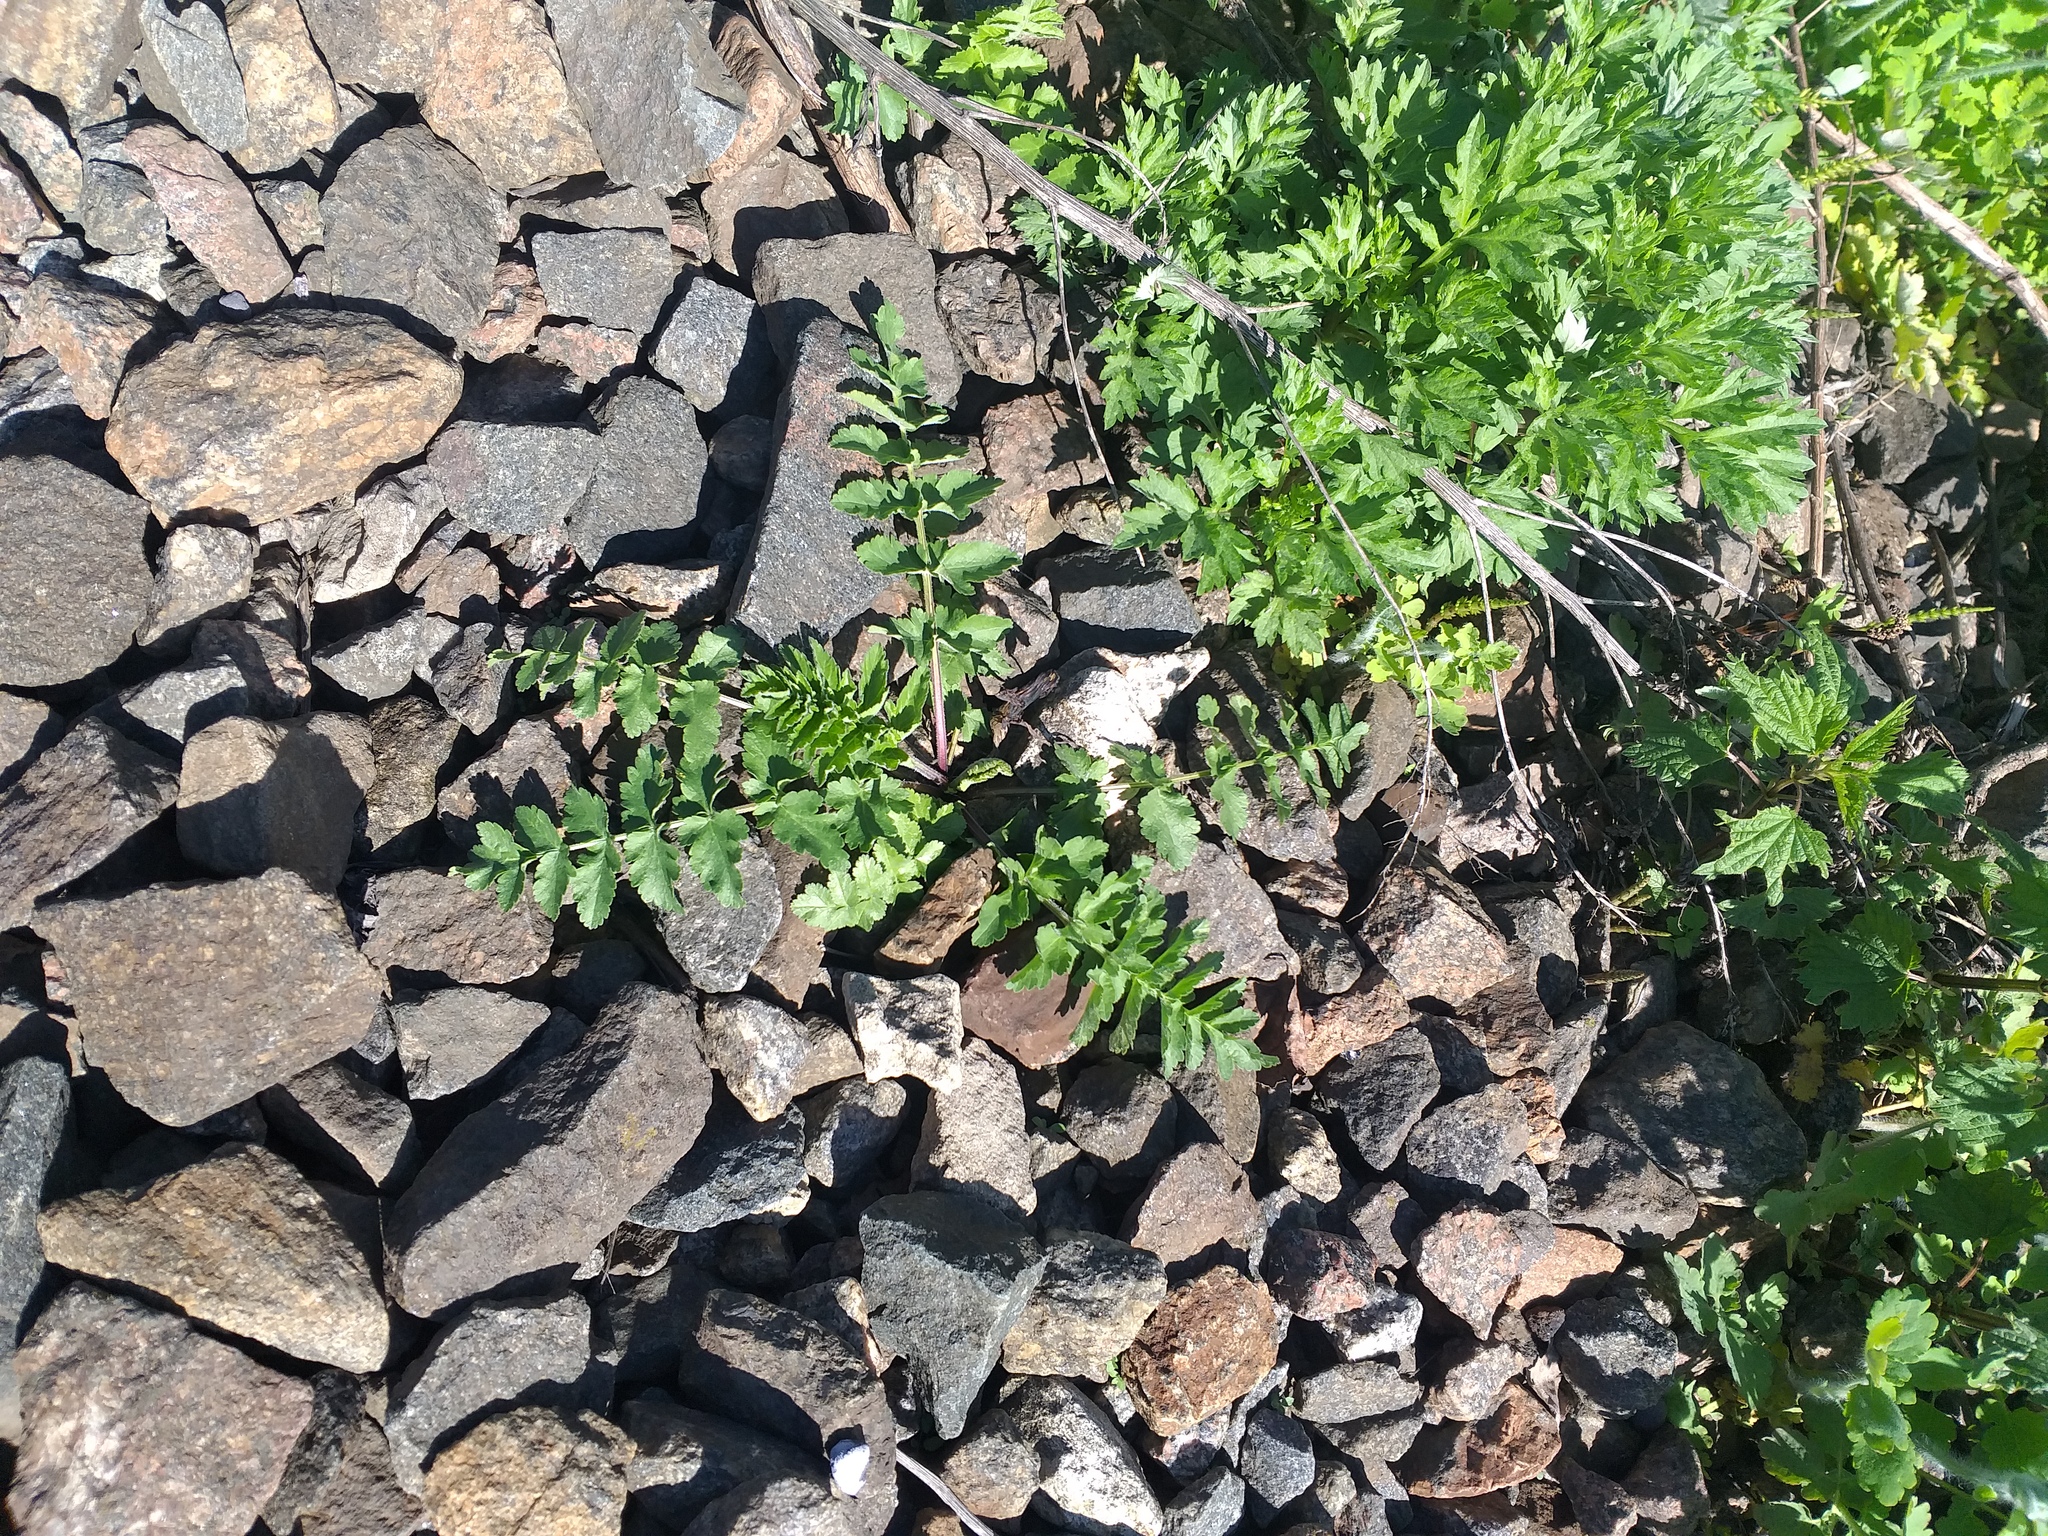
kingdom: Plantae
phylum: Tracheophyta
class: Magnoliopsida
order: Apiales
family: Apiaceae
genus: Pastinaca
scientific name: Pastinaca sativa
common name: Wild parsnip
